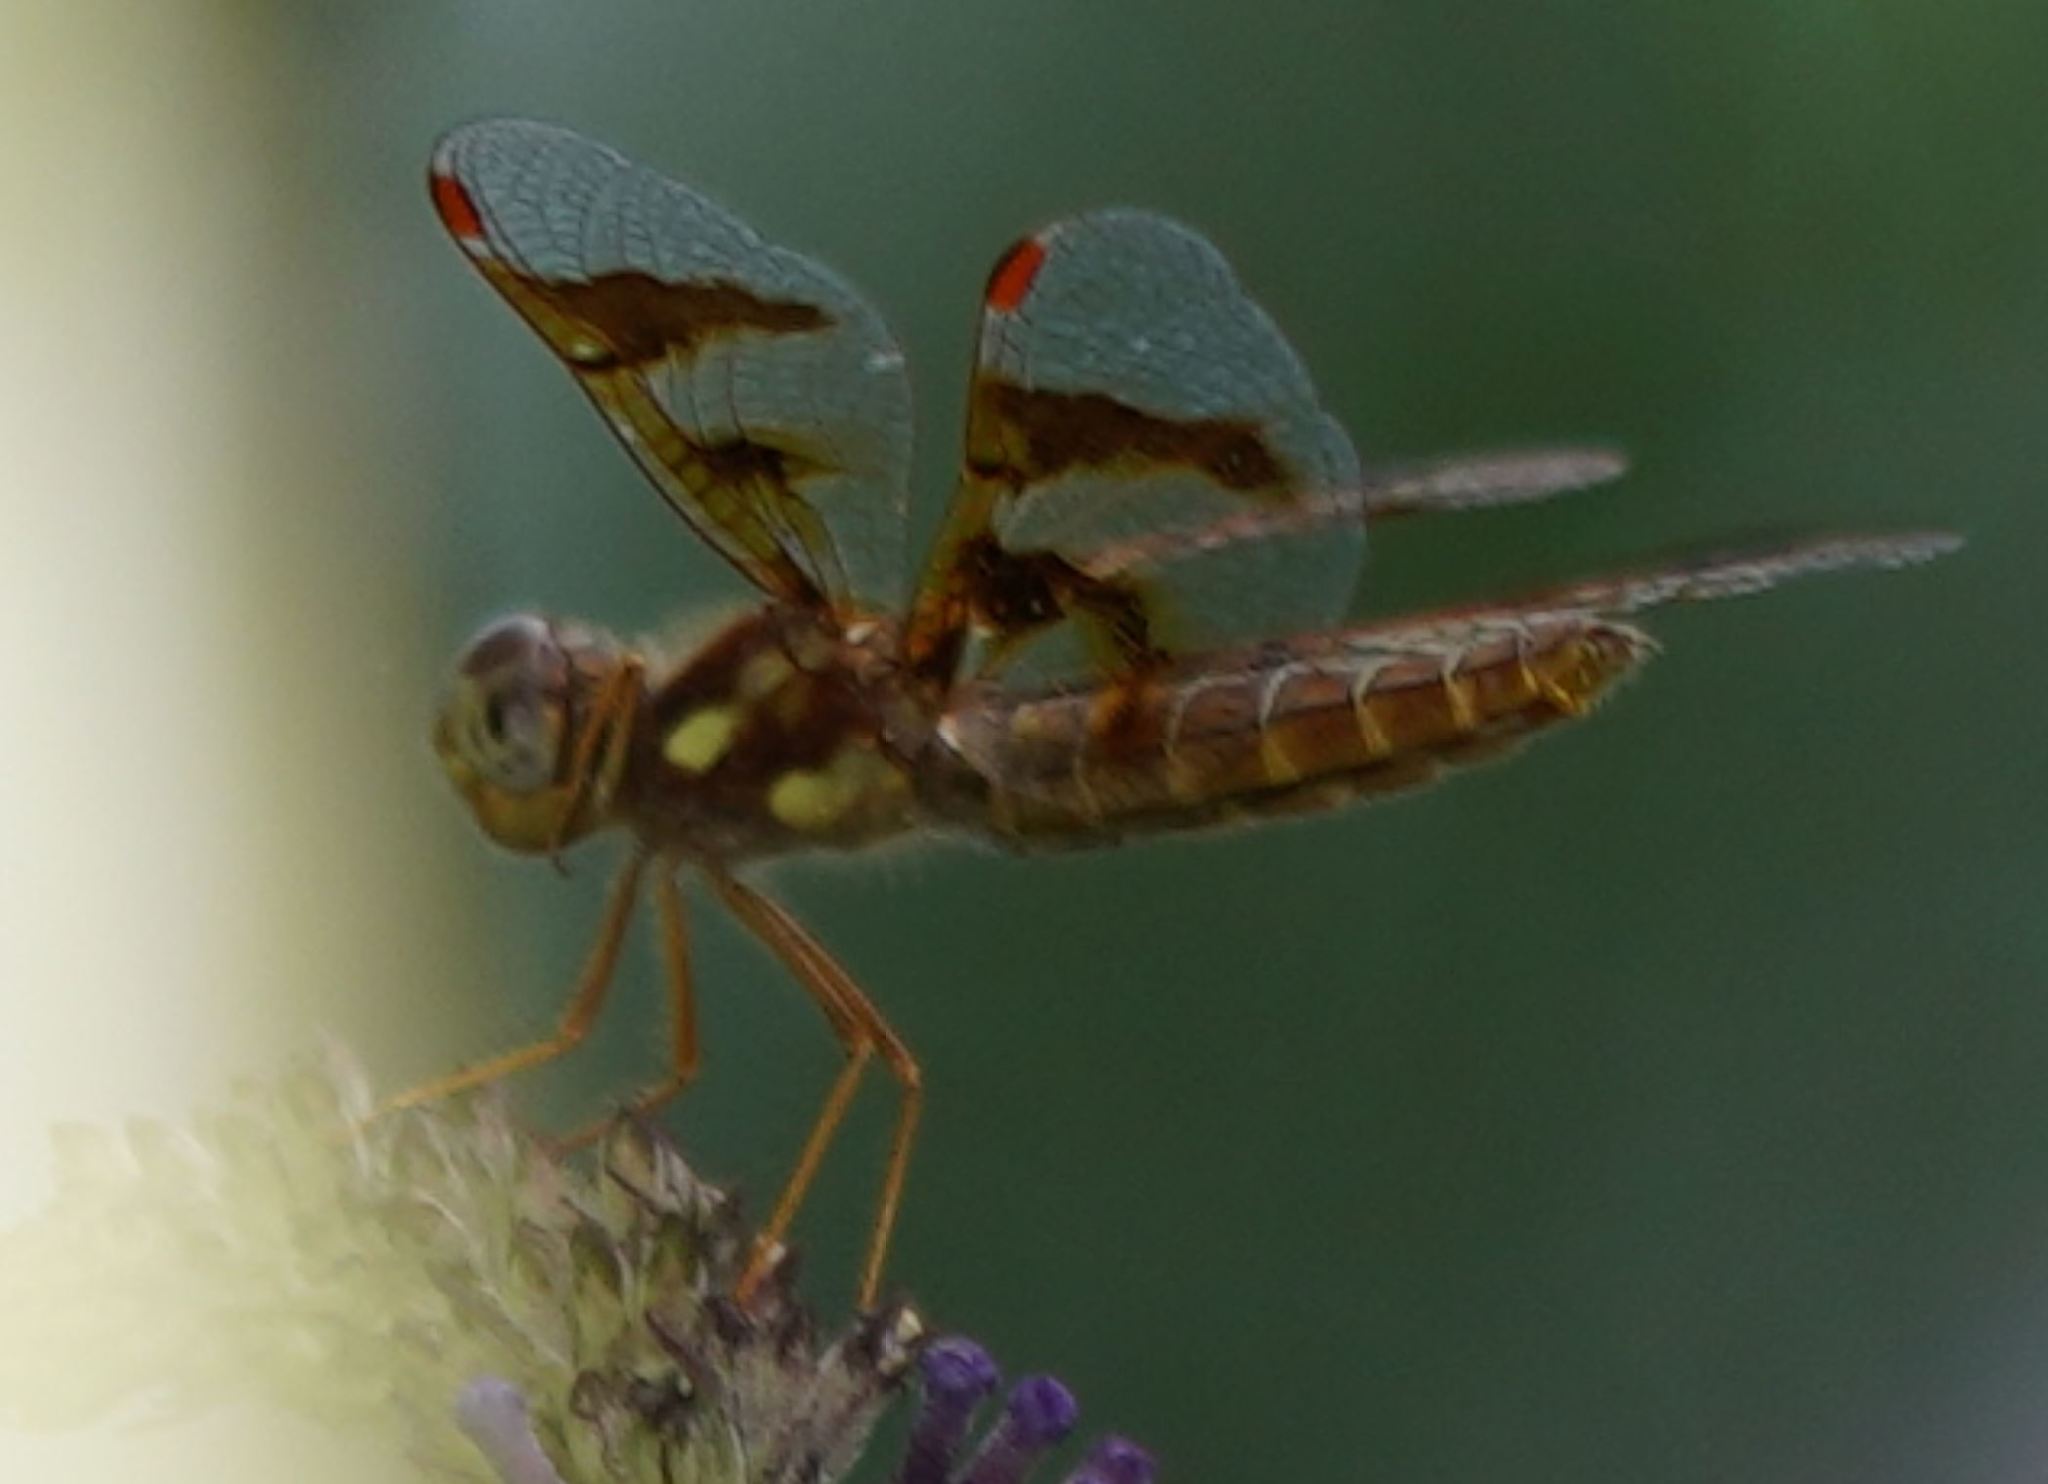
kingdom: Animalia
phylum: Arthropoda
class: Insecta
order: Odonata
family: Libellulidae
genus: Perithemis
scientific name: Perithemis tenera
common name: Eastern amberwing
